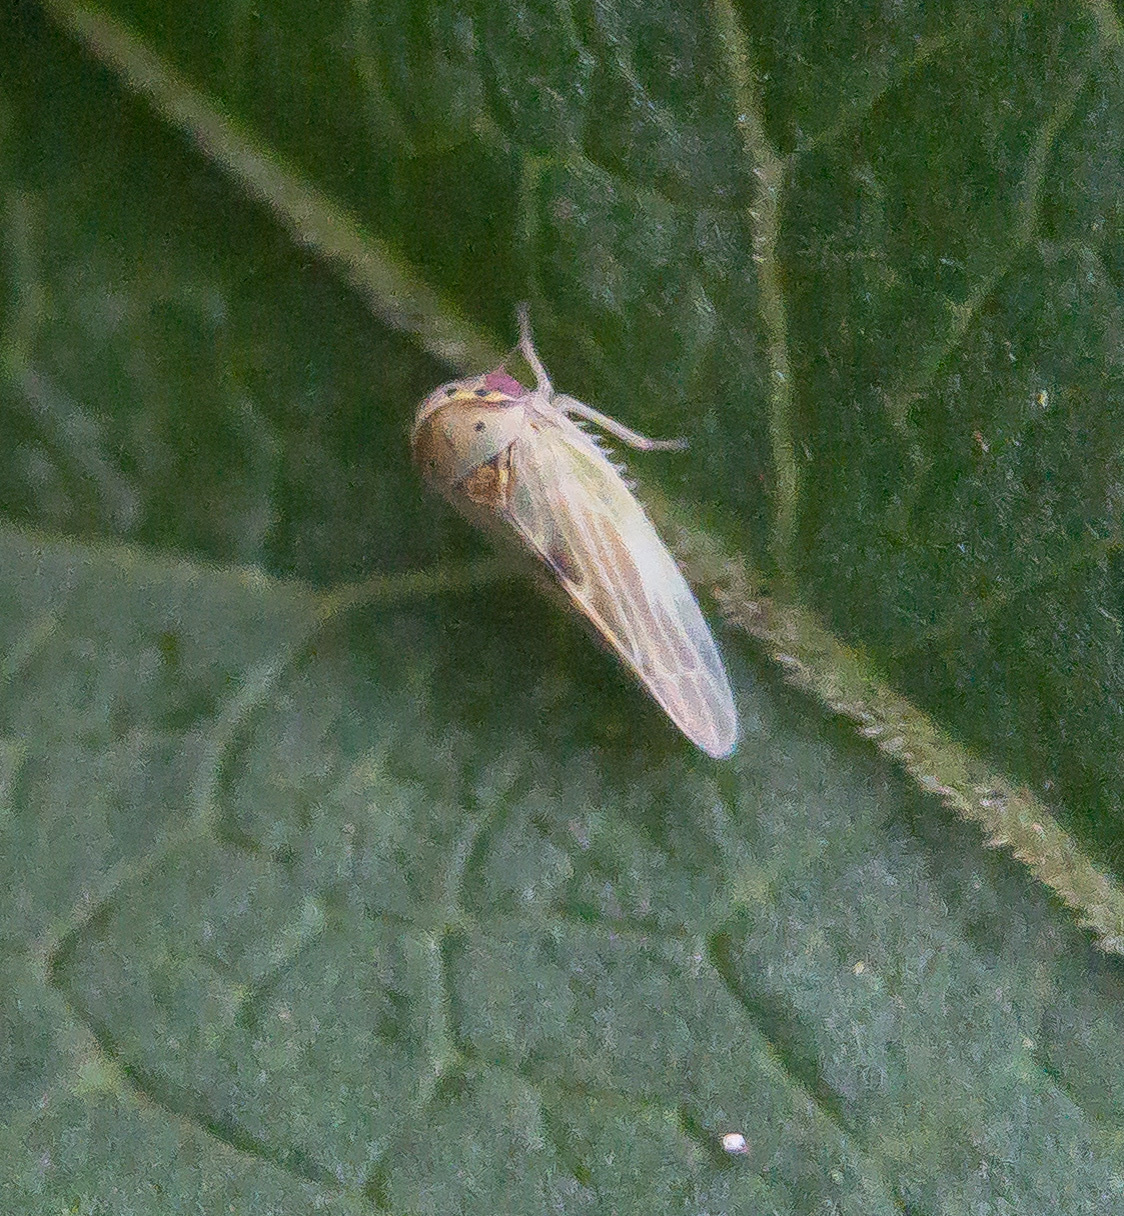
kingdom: Animalia
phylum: Arthropoda
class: Insecta
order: Hemiptera
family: Cicadellidae
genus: Agalliopsis
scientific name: Agalliopsis ancistra
